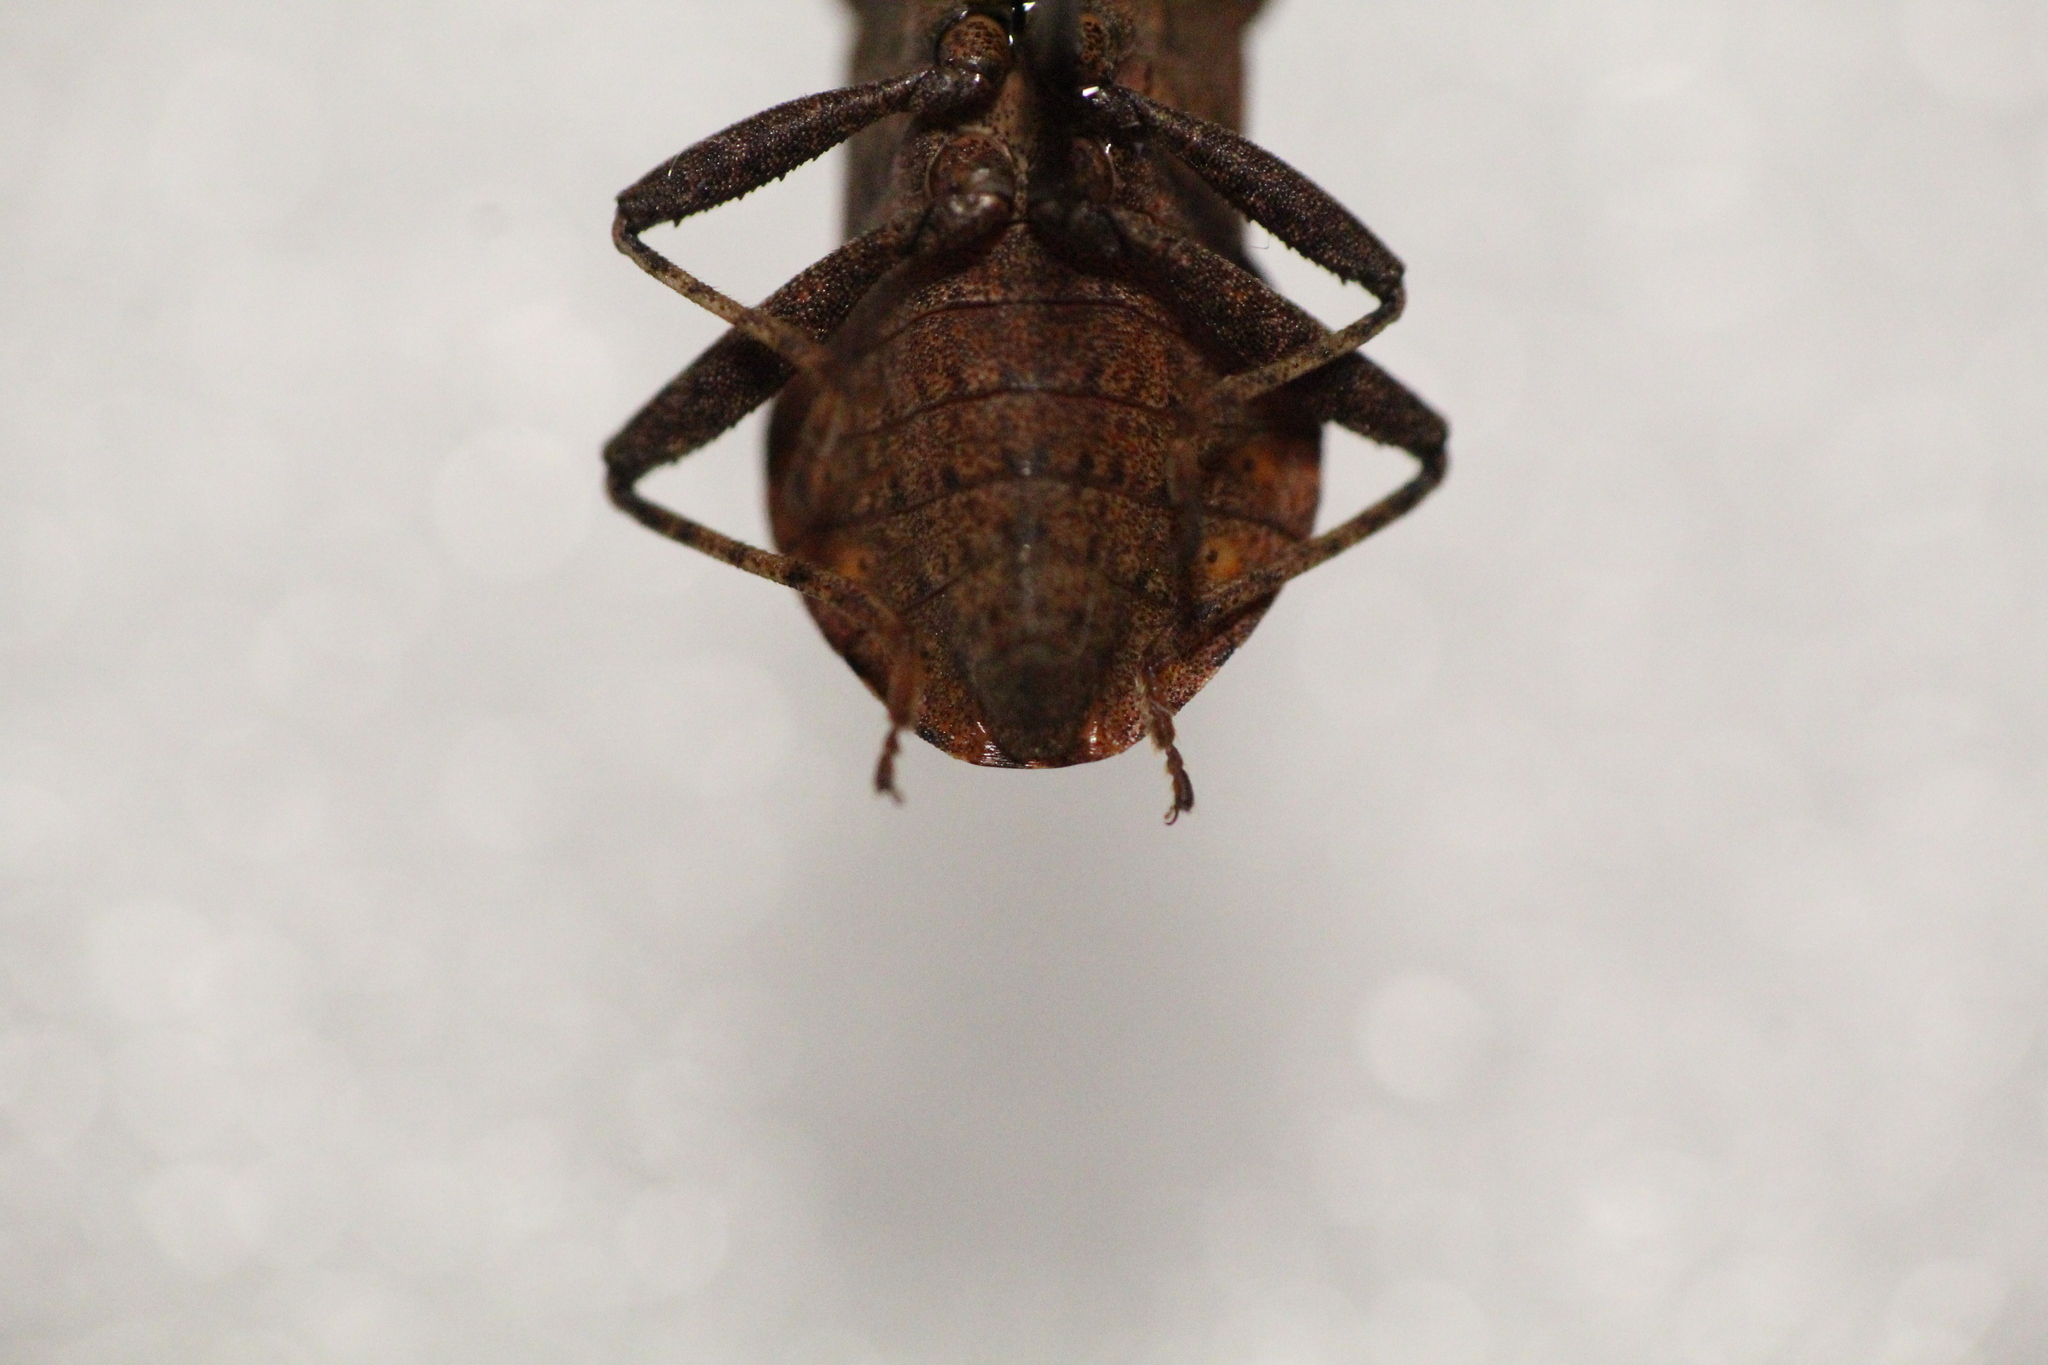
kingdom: Animalia
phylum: Arthropoda
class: Insecta
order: Hemiptera
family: Coreidae
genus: Coreus
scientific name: Coreus marginatus
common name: Dock bug
